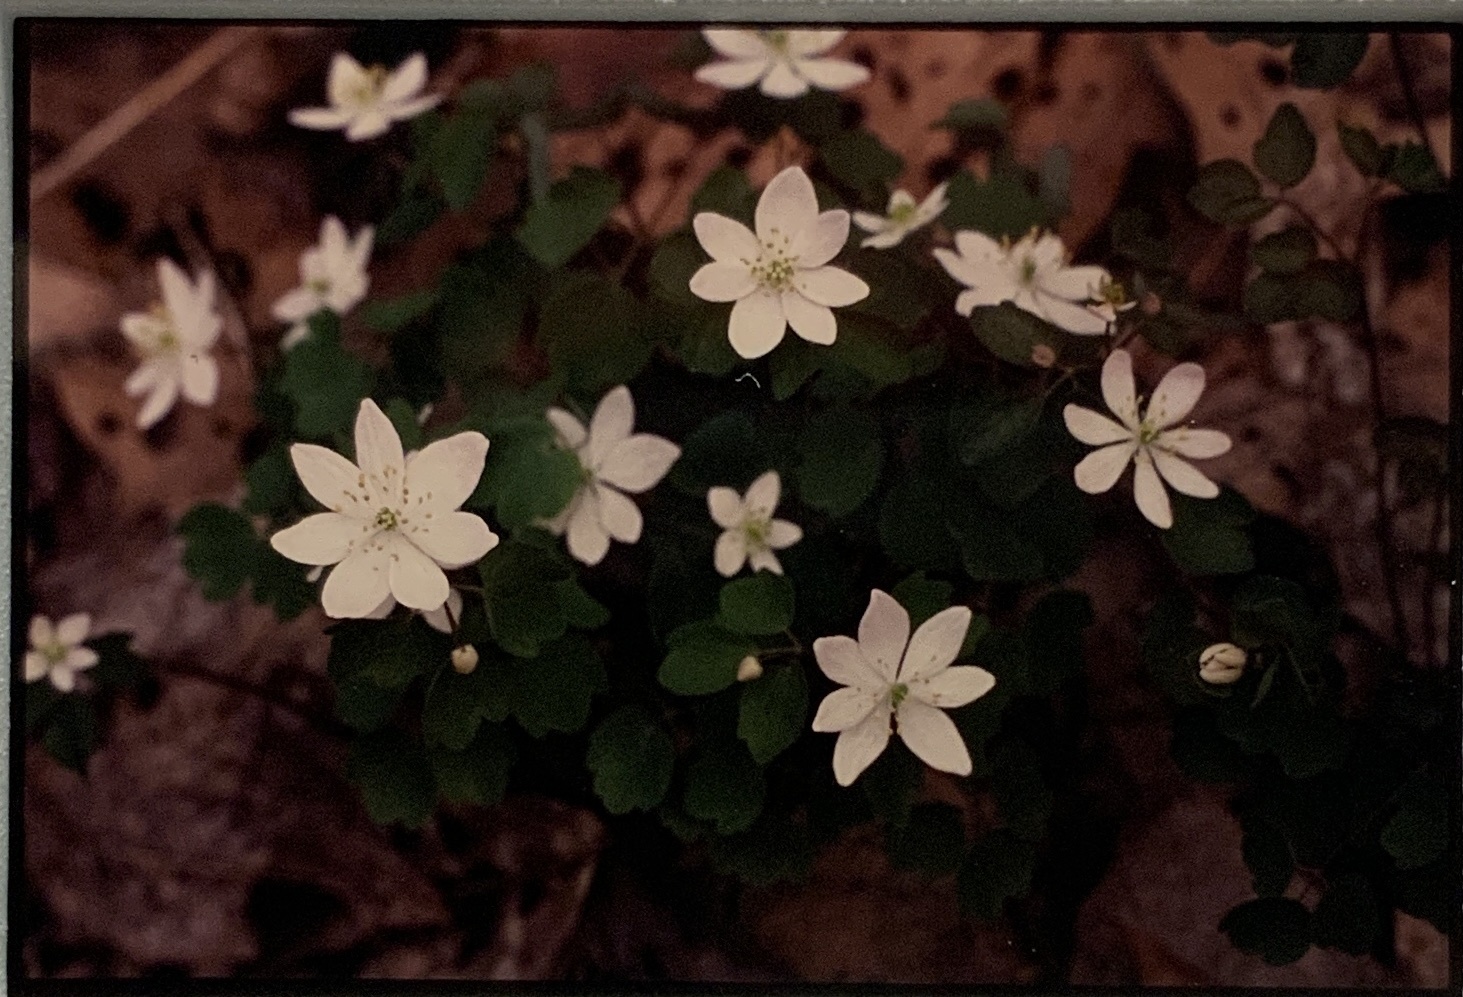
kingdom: Plantae
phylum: Tracheophyta
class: Magnoliopsida
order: Ranunculales
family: Ranunculaceae
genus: Thalictrum
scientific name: Thalictrum thalictroides
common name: Rue-anemone
